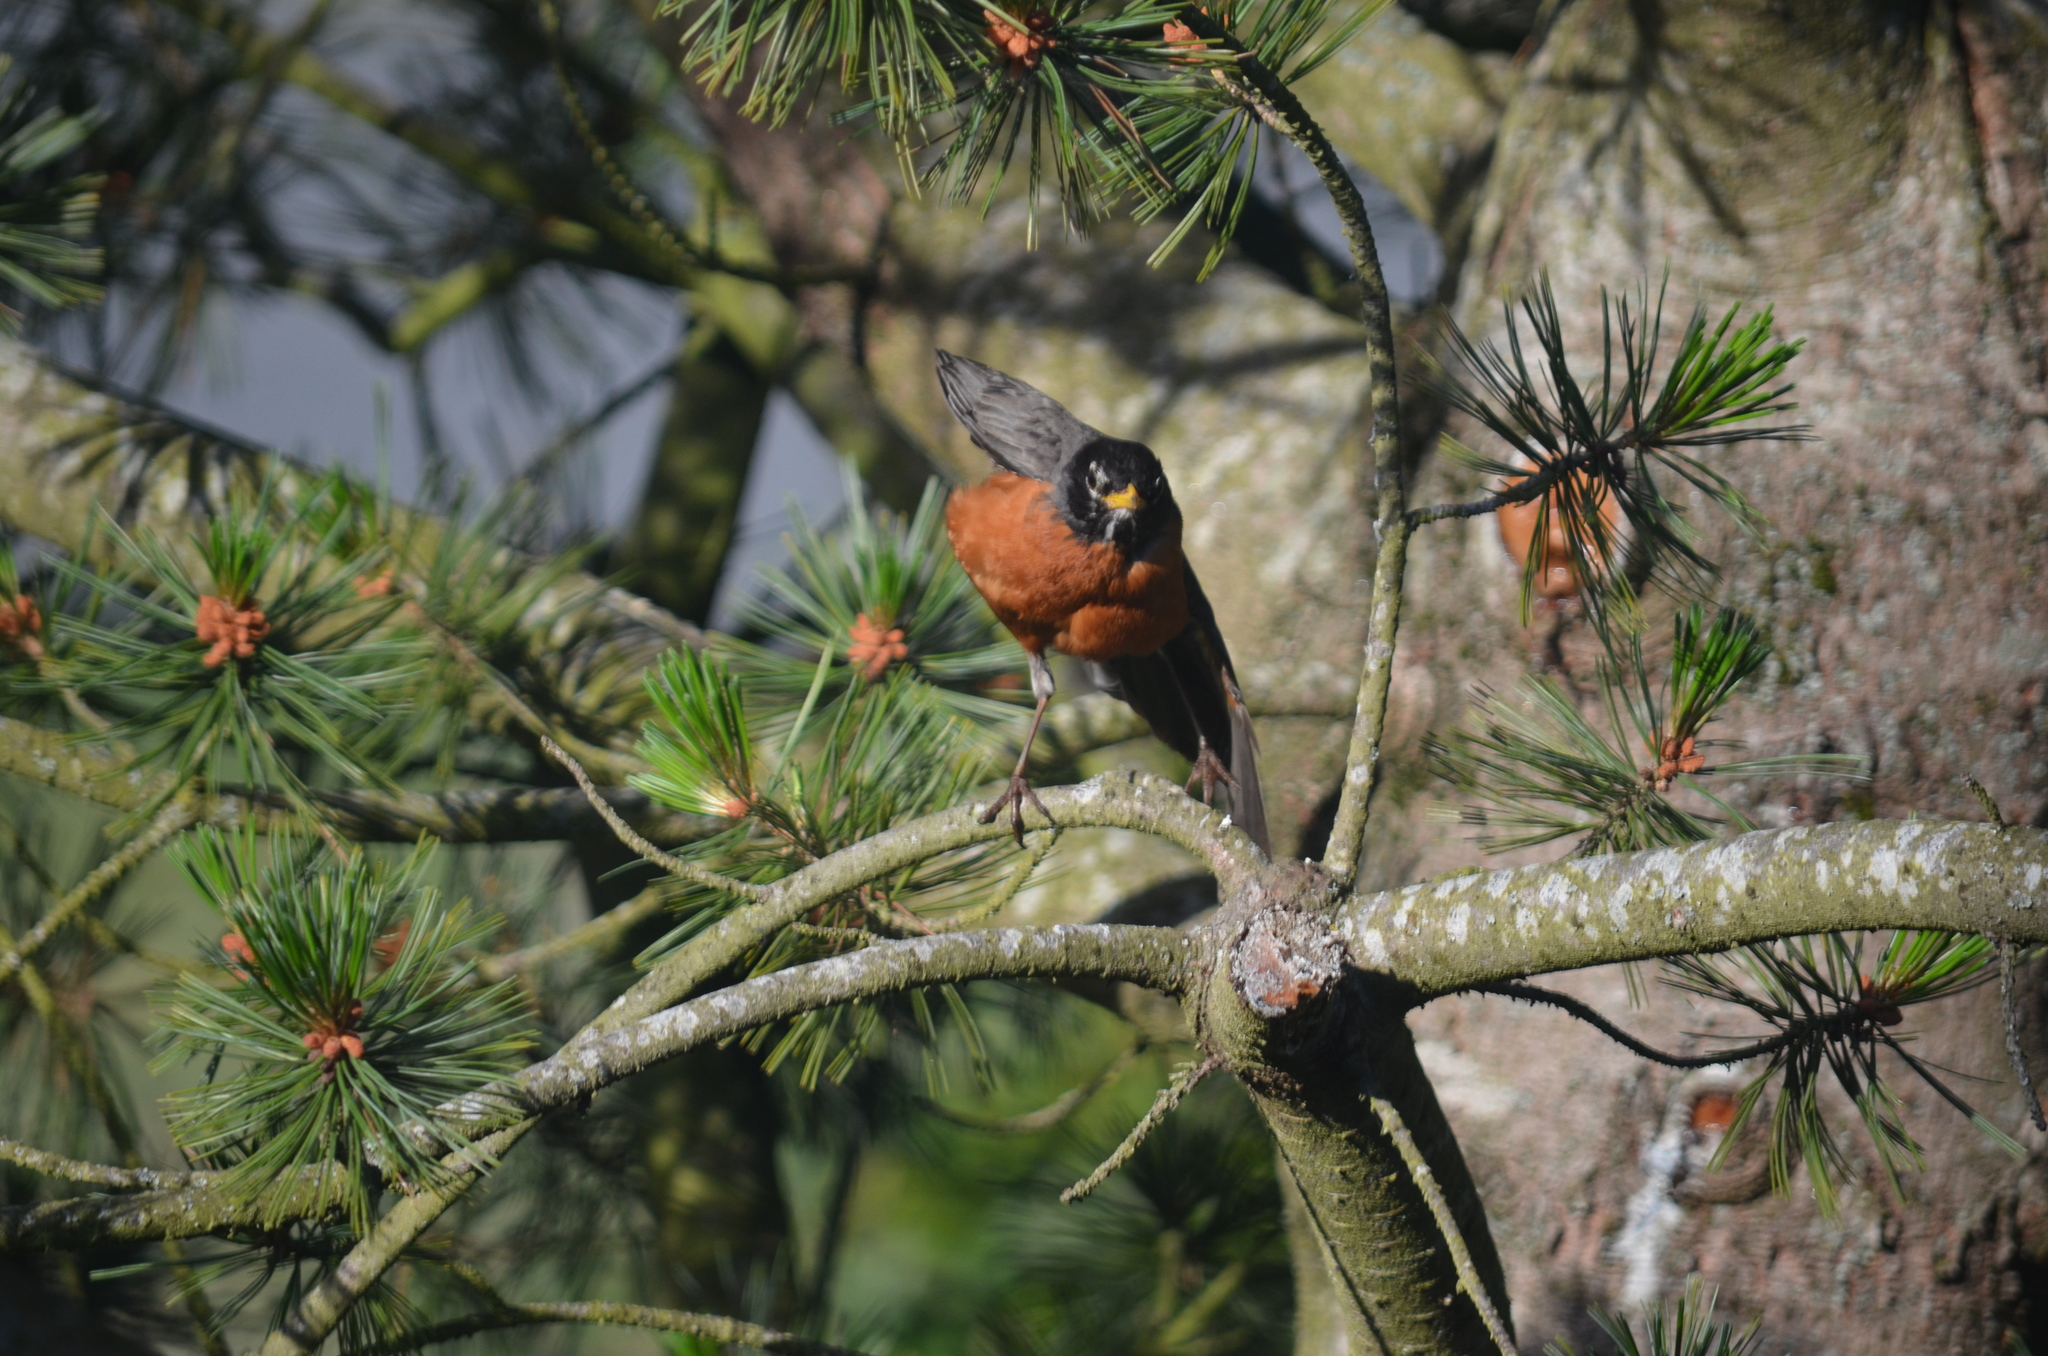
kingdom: Animalia
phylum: Chordata
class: Aves
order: Passeriformes
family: Turdidae
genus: Turdus
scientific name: Turdus migratorius
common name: American robin
